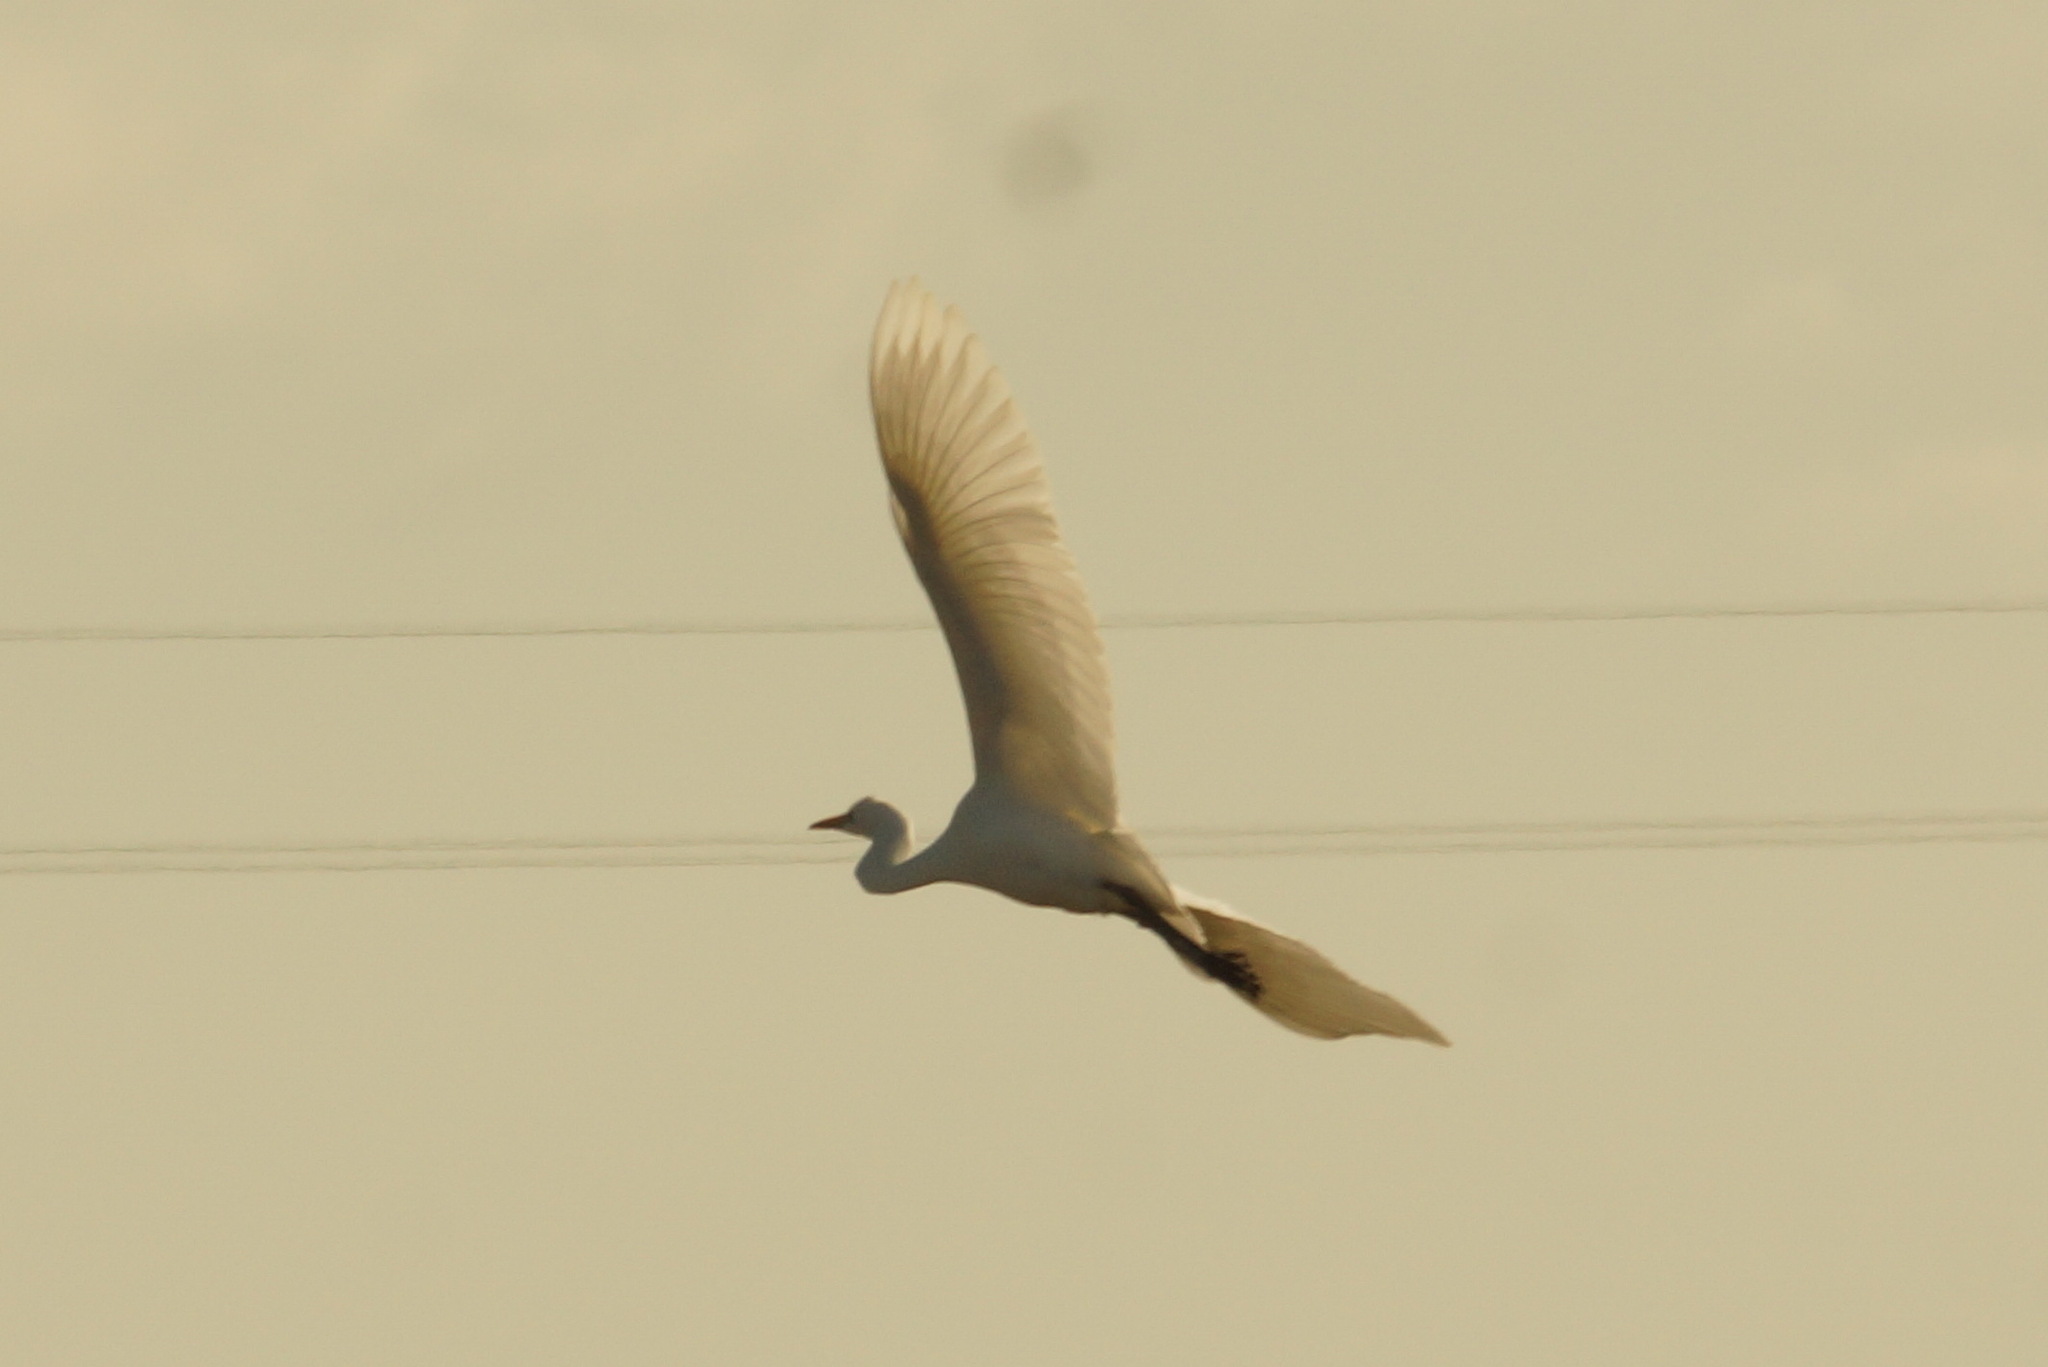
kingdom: Animalia
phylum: Chordata
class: Aves
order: Pelecaniformes
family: Ardeidae
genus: Ardea
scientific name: Ardea alba
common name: Great egret
